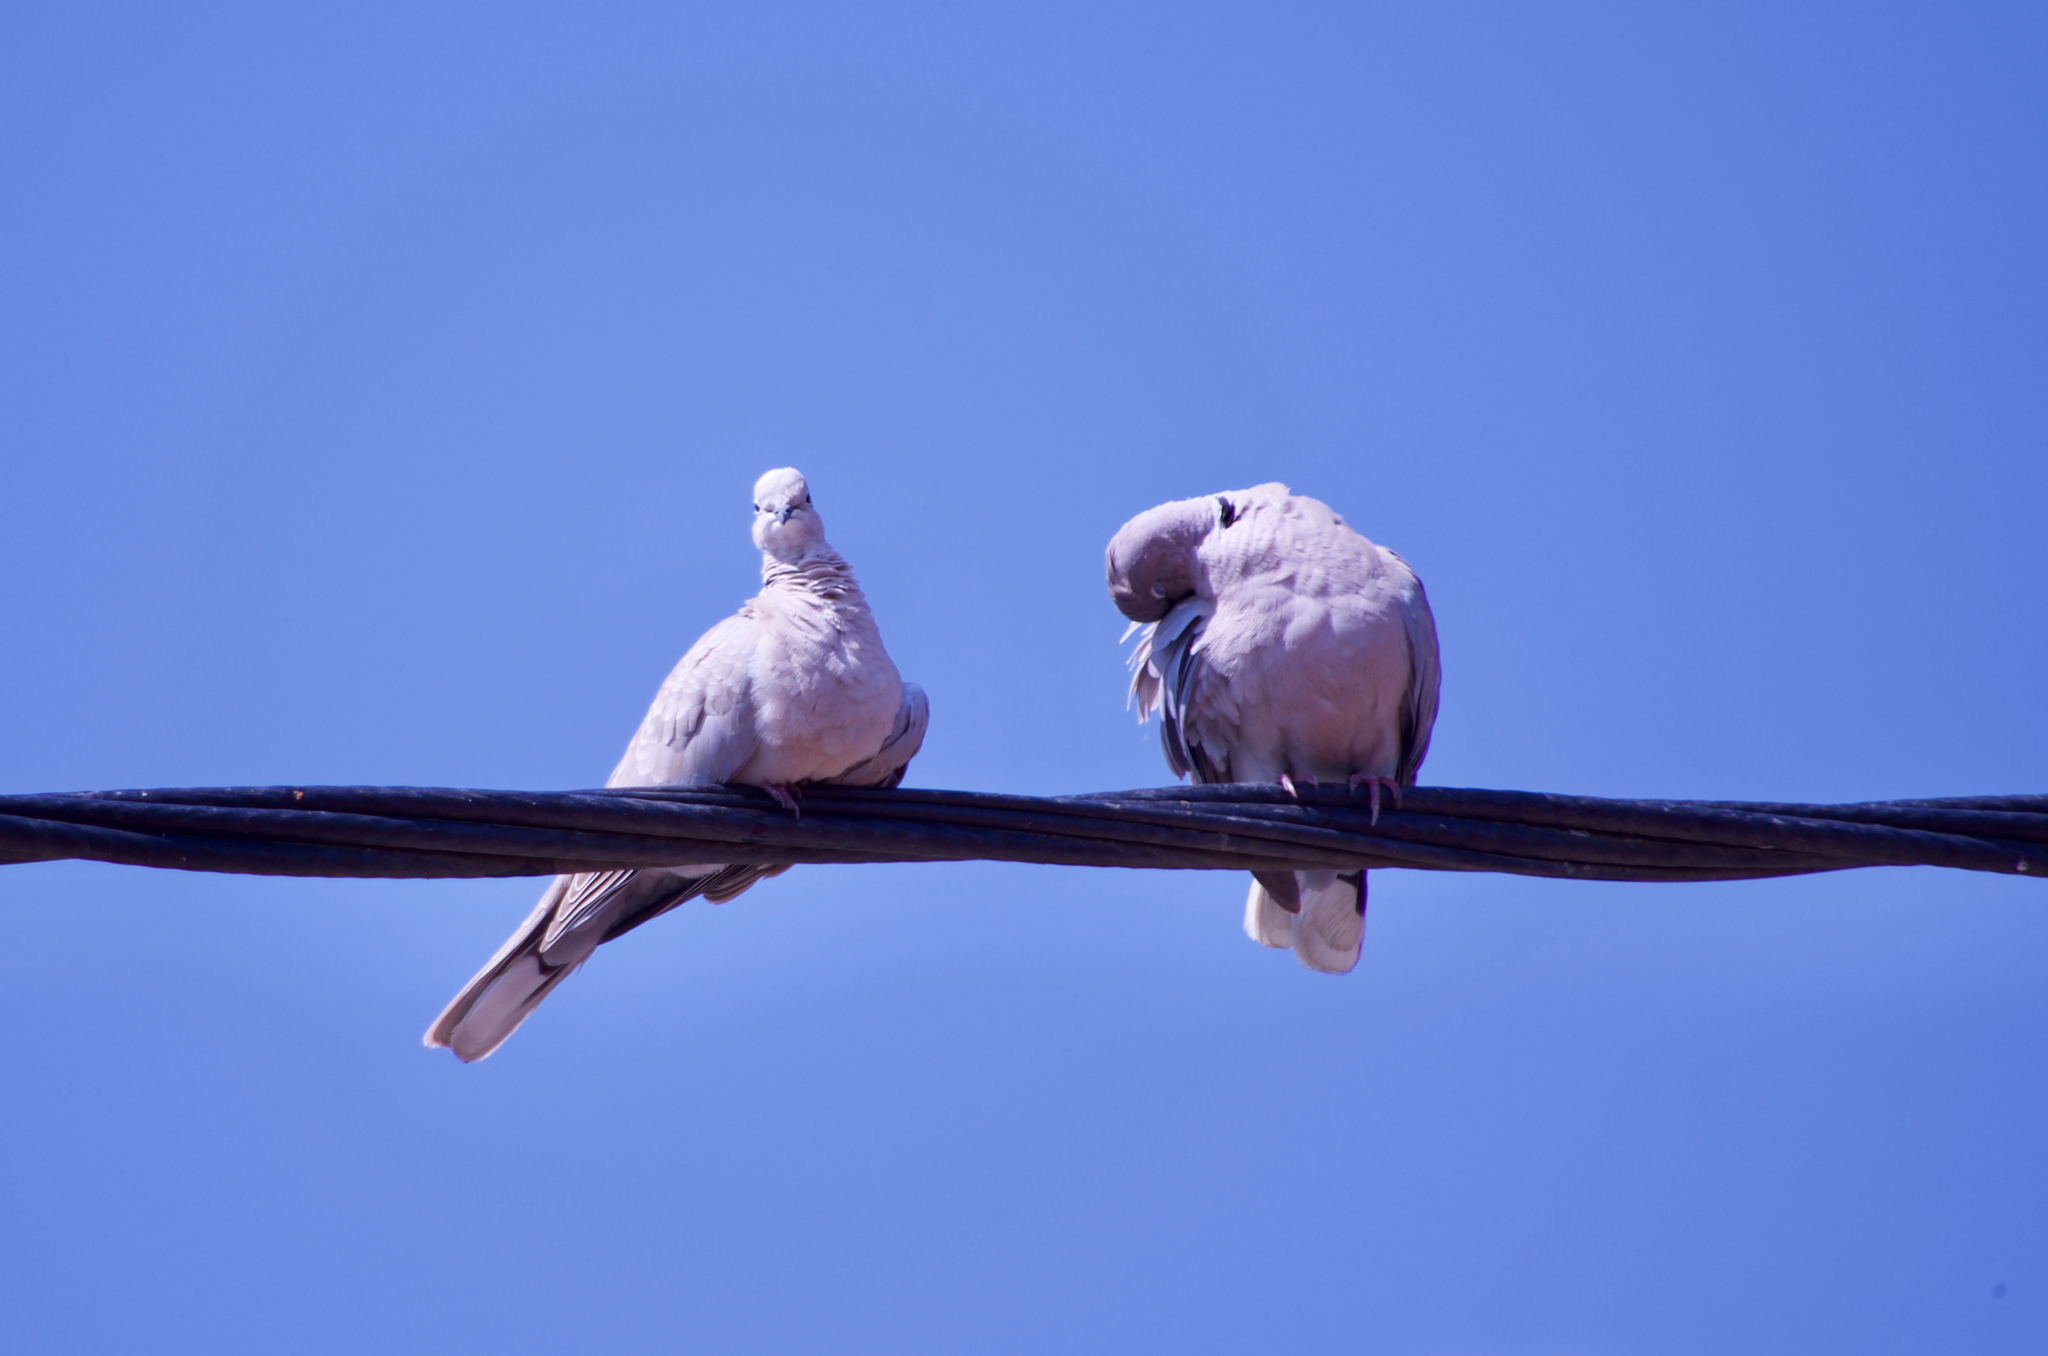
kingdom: Animalia
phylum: Chordata
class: Aves
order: Columbiformes
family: Columbidae
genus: Streptopelia
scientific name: Streptopelia decaocto
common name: Eurasian collared dove
